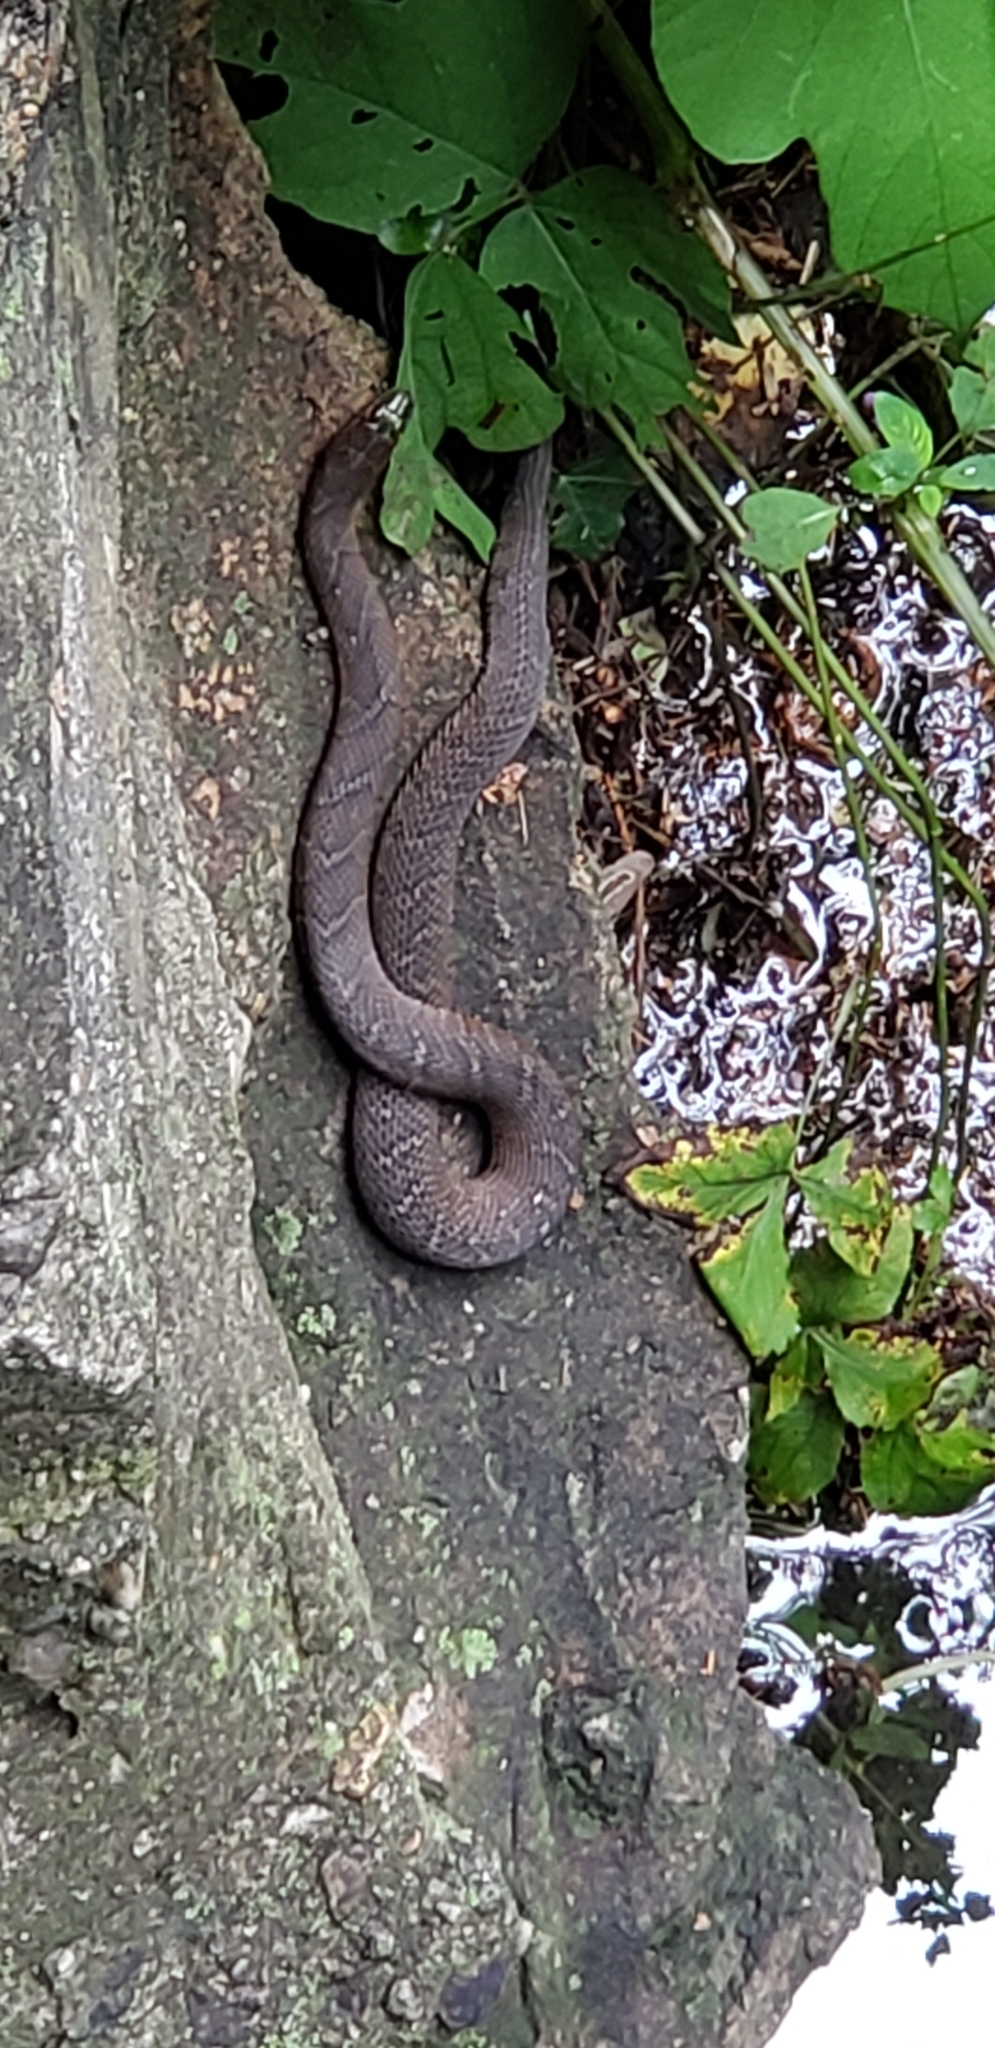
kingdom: Animalia
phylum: Chordata
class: Squamata
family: Colubridae
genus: Nerodia
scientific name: Nerodia sipedon
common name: Northern water snake
